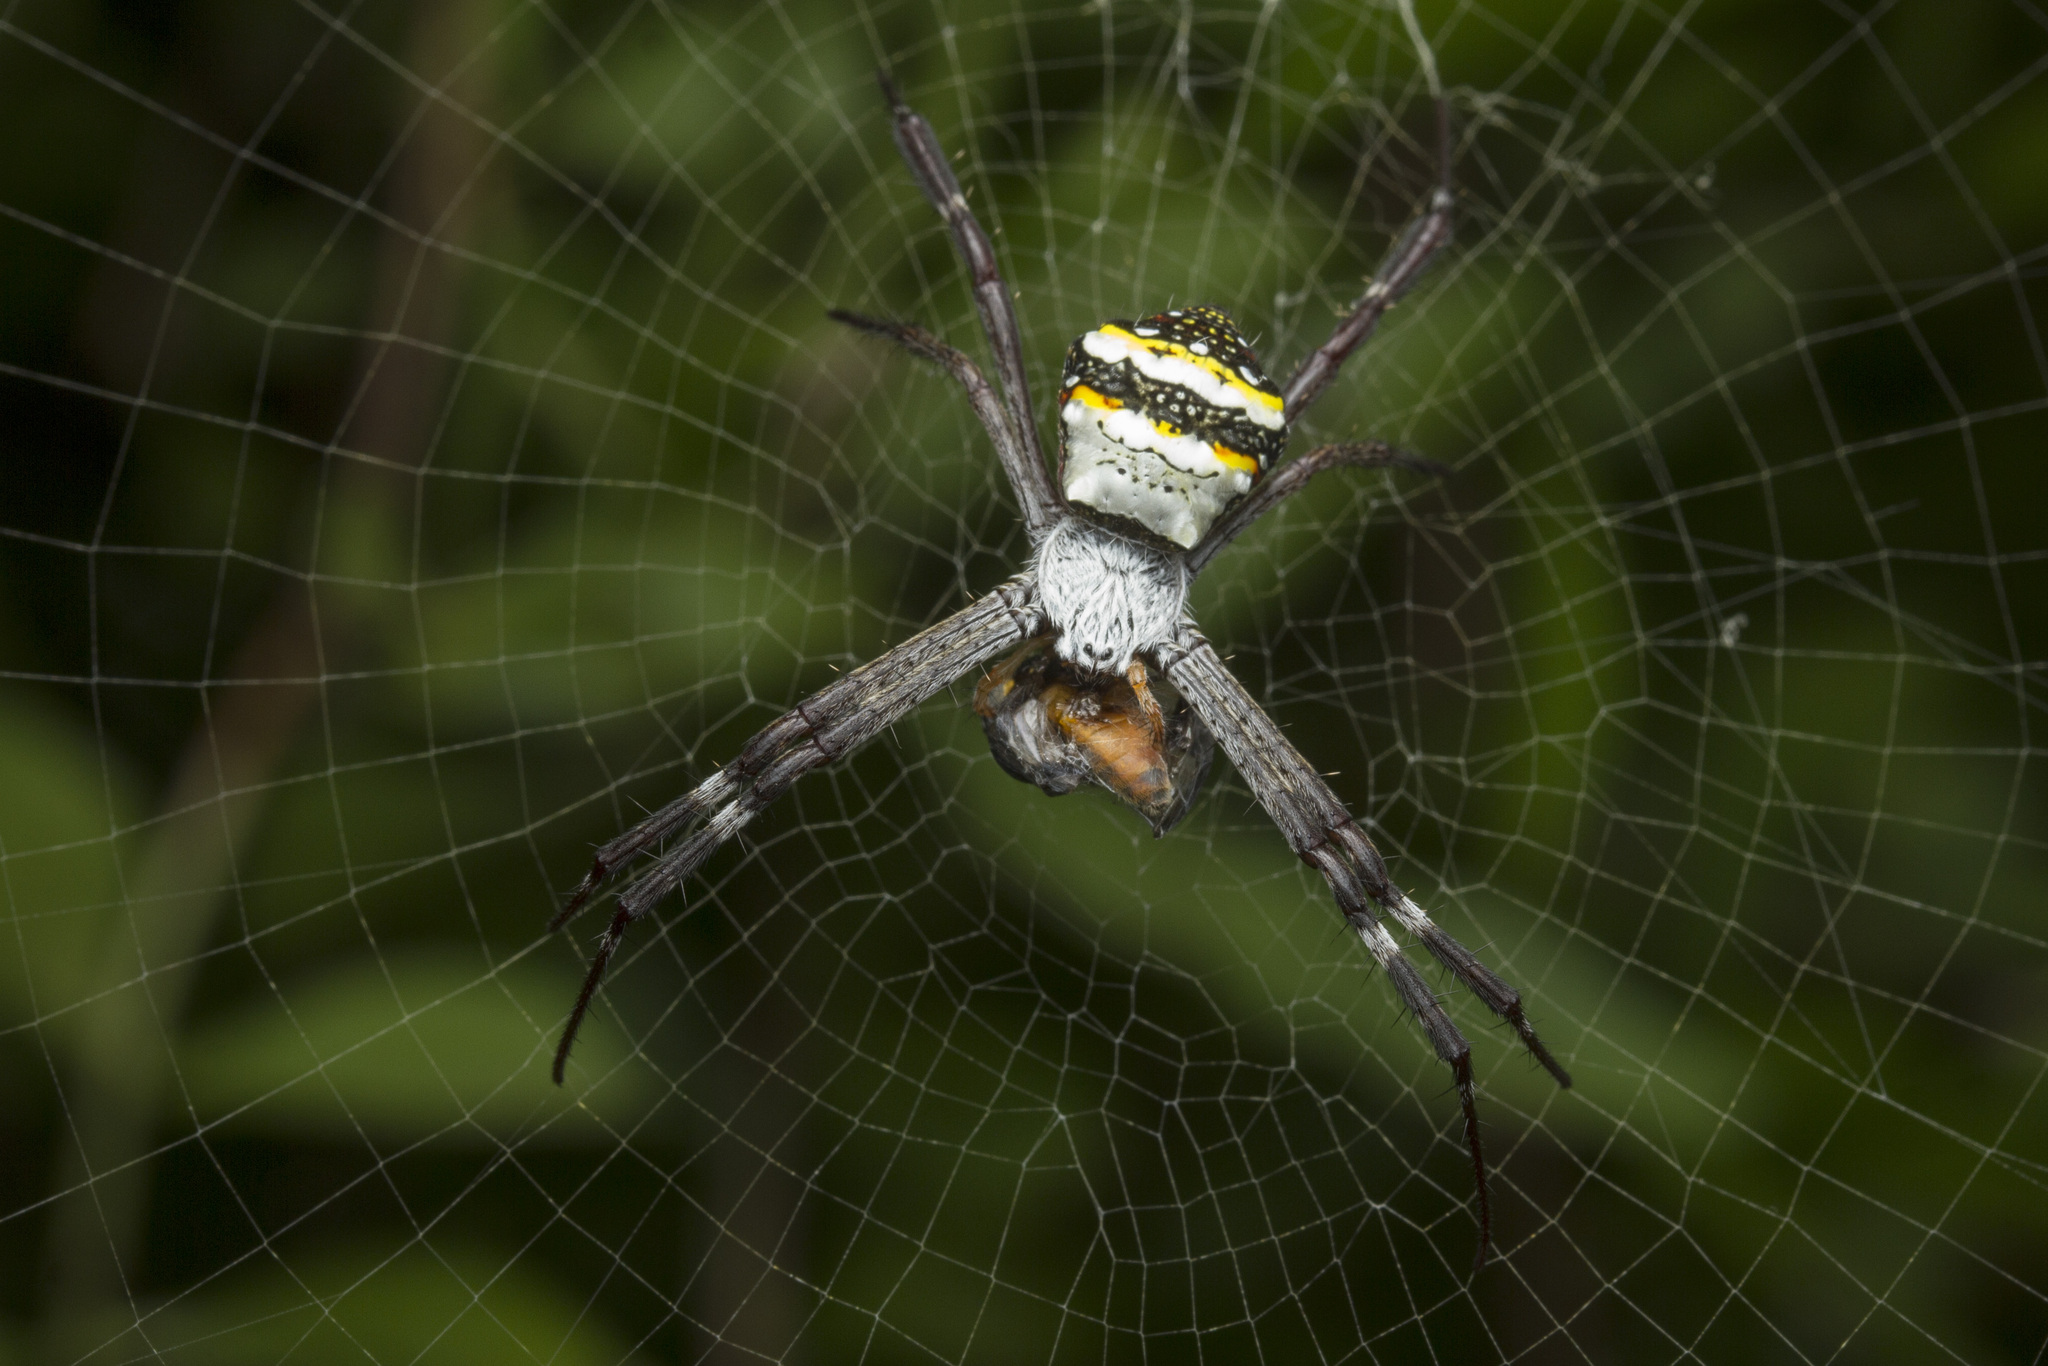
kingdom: Animalia
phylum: Arthropoda
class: Arachnida
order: Araneae
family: Araneidae
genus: Argiope
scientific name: Argiope anasuja
